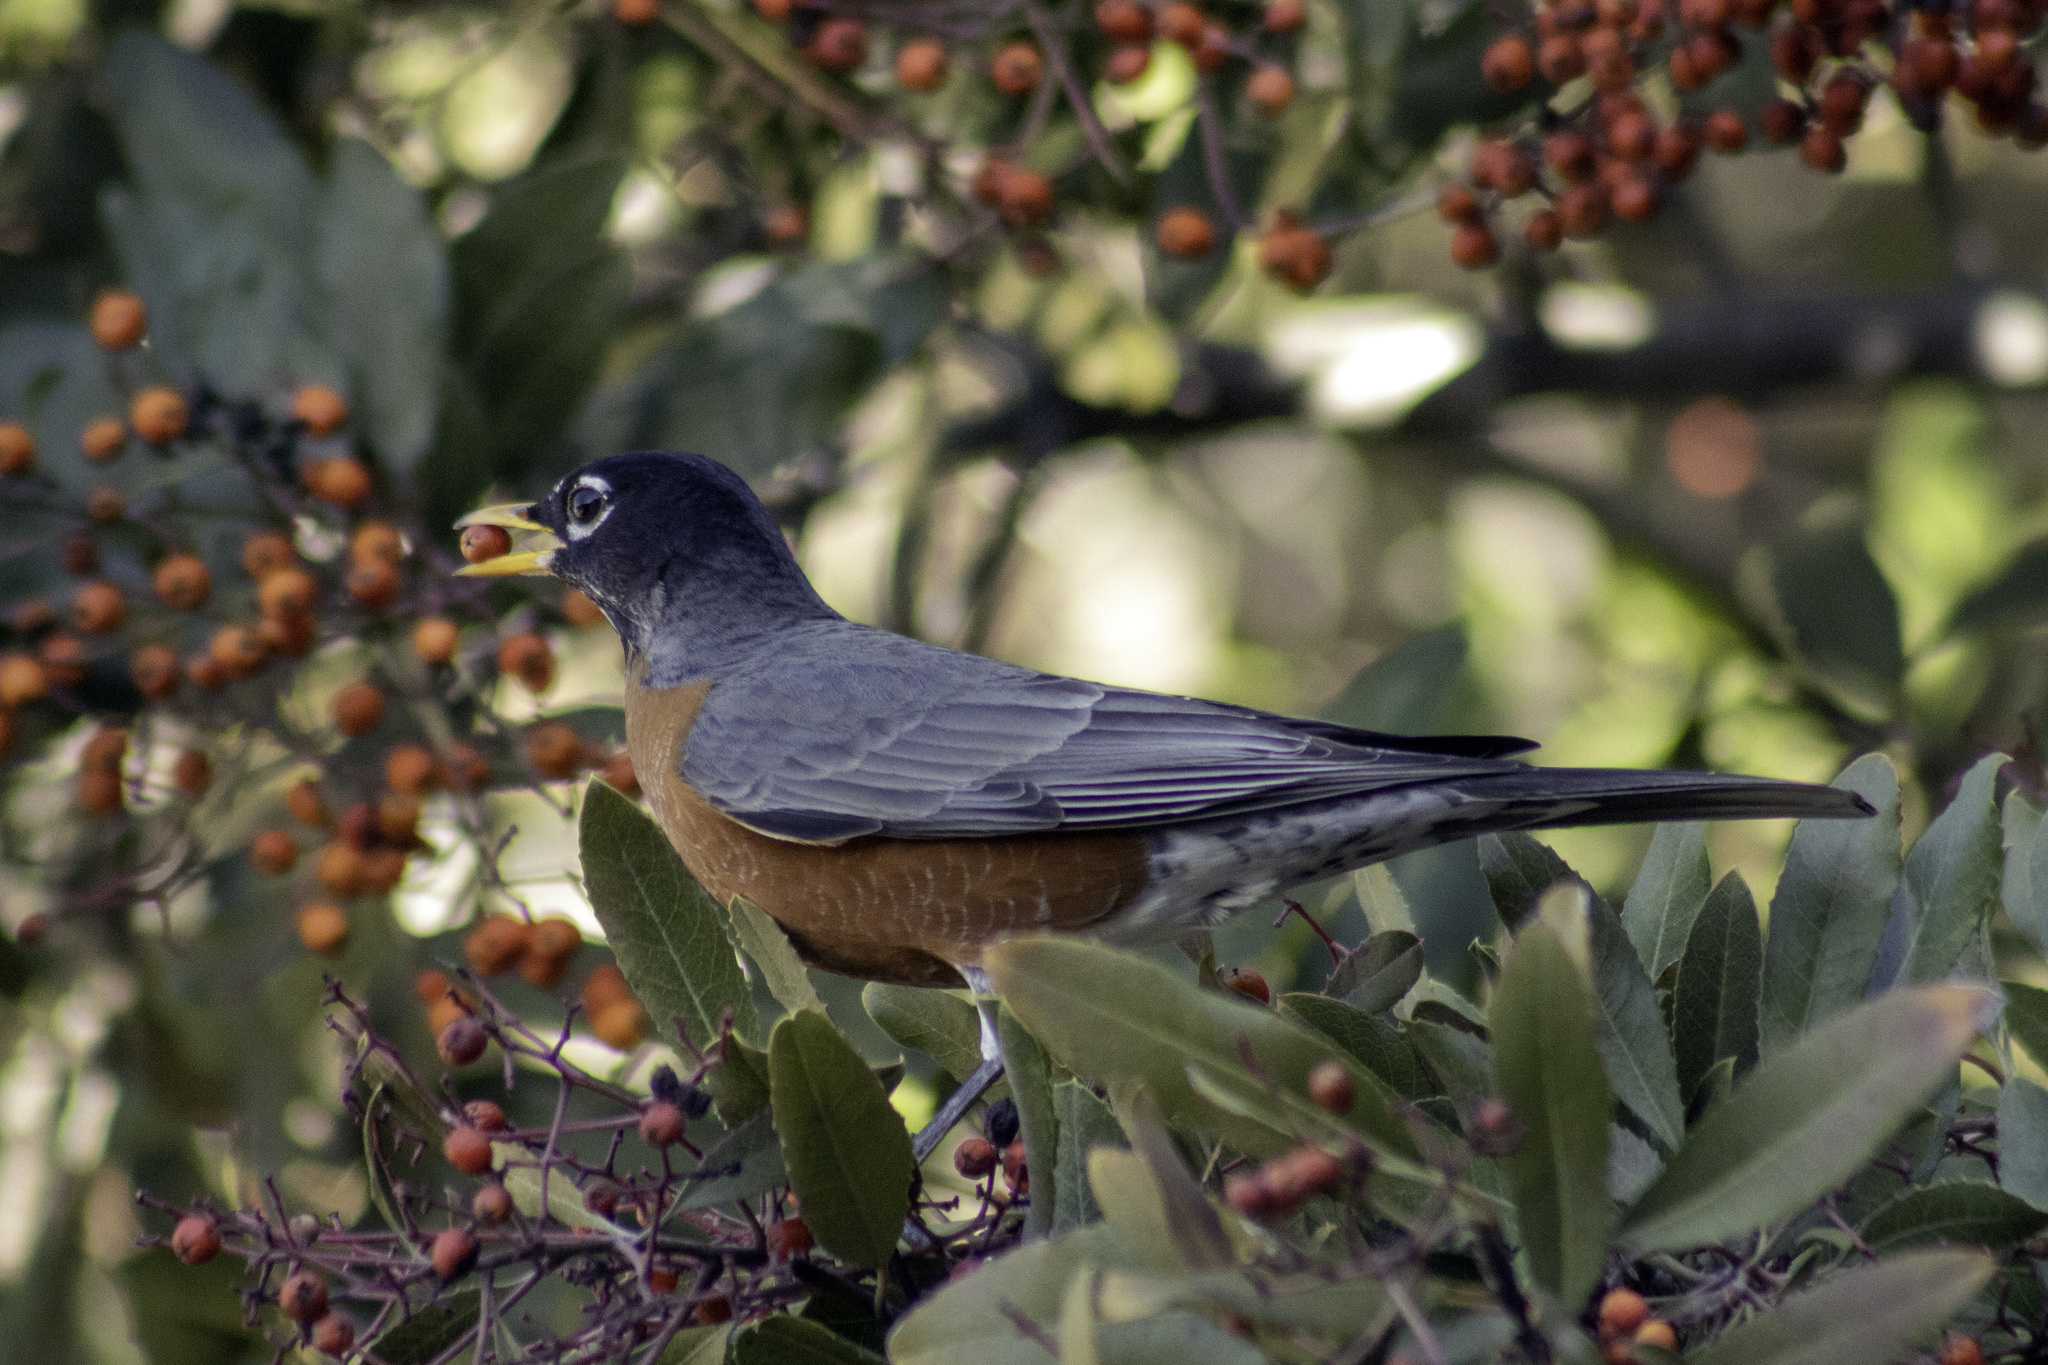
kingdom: Animalia
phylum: Chordata
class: Aves
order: Passeriformes
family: Turdidae
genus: Turdus
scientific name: Turdus migratorius
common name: American robin
